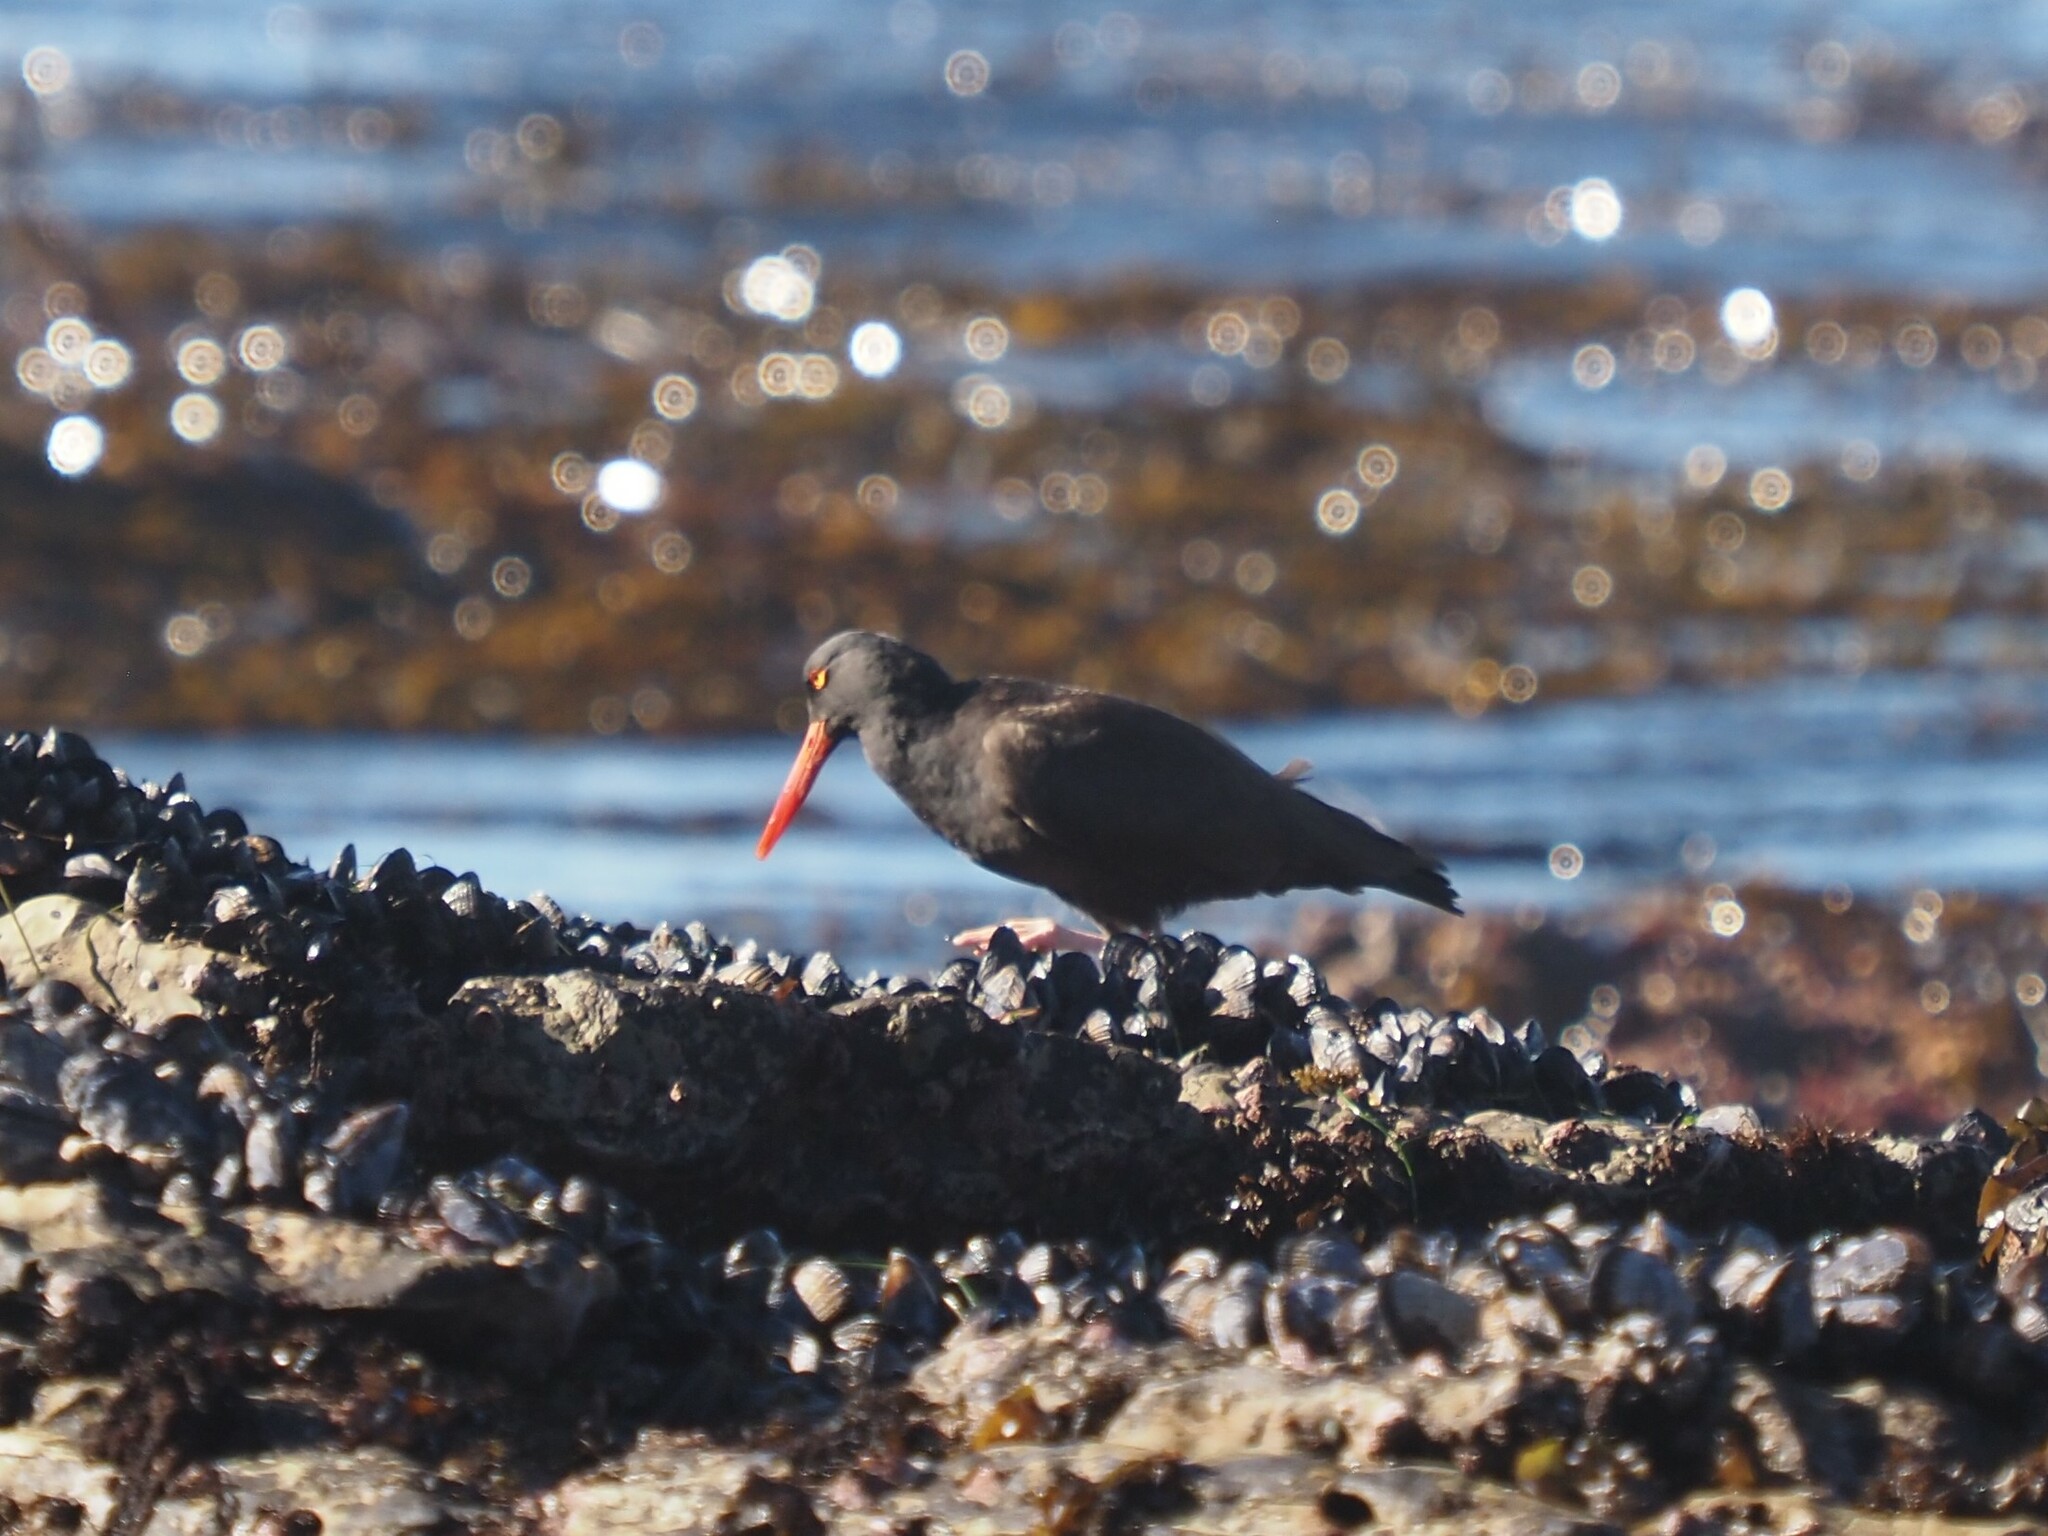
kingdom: Animalia
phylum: Chordata
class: Aves
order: Charadriiformes
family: Haematopodidae
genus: Haematopus
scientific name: Haematopus bachmani
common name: Black oystercatcher
